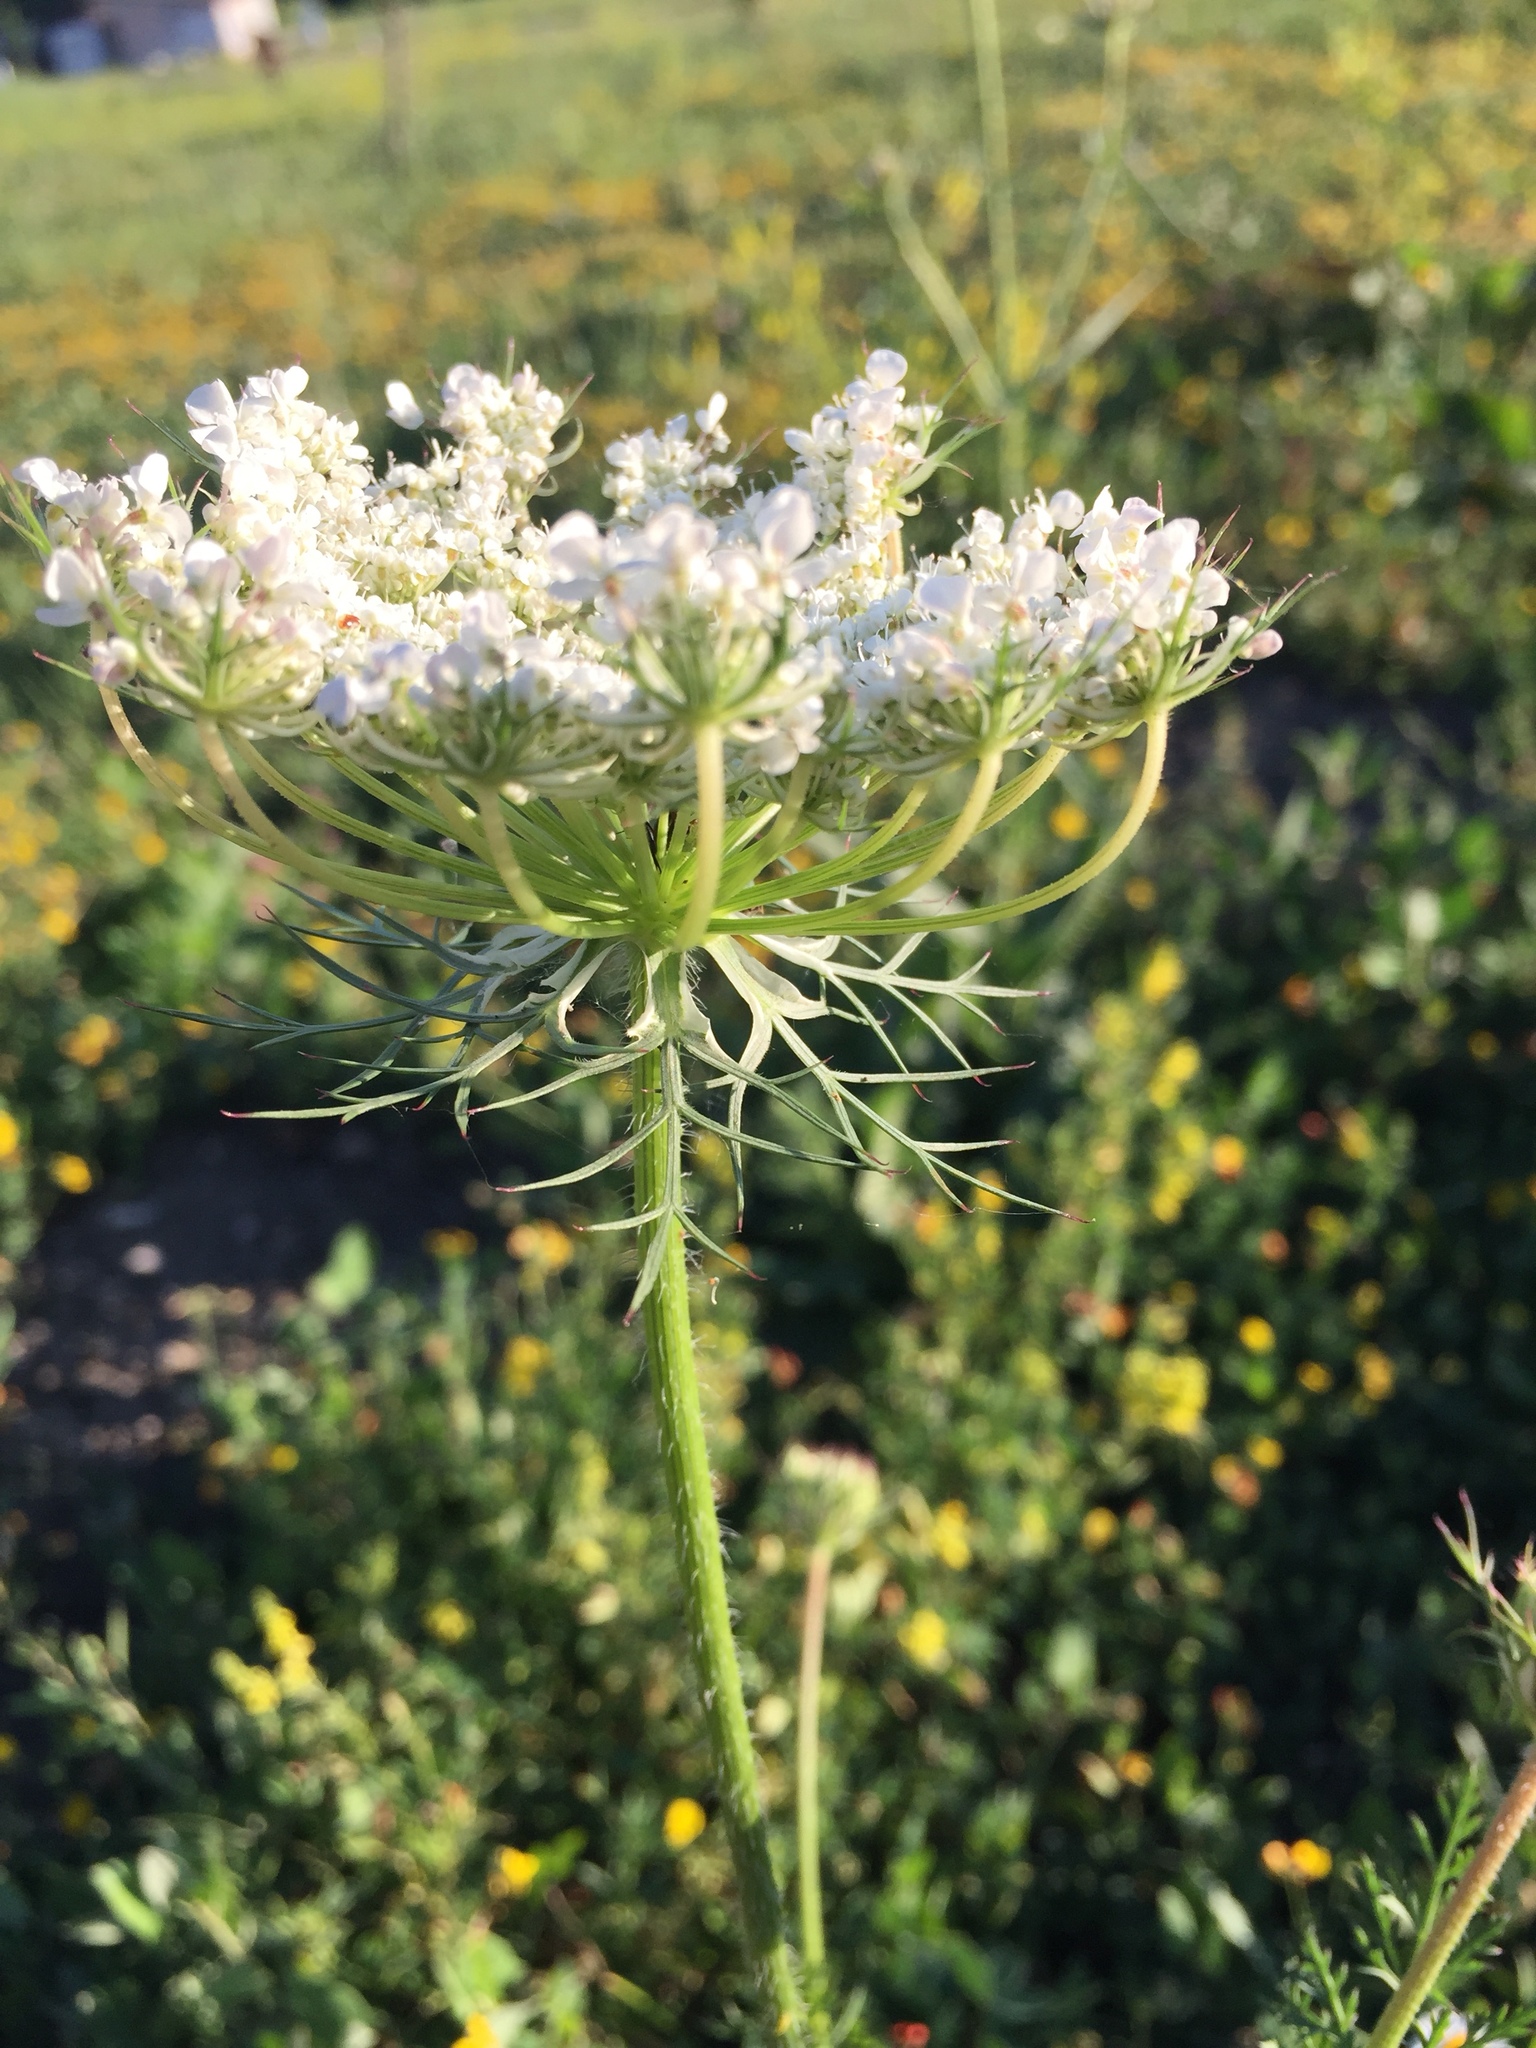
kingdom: Plantae
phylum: Tracheophyta
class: Magnoliopsida
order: Apiales
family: Apiaceae
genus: Daucus
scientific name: Daucus carota
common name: Wild carrot
